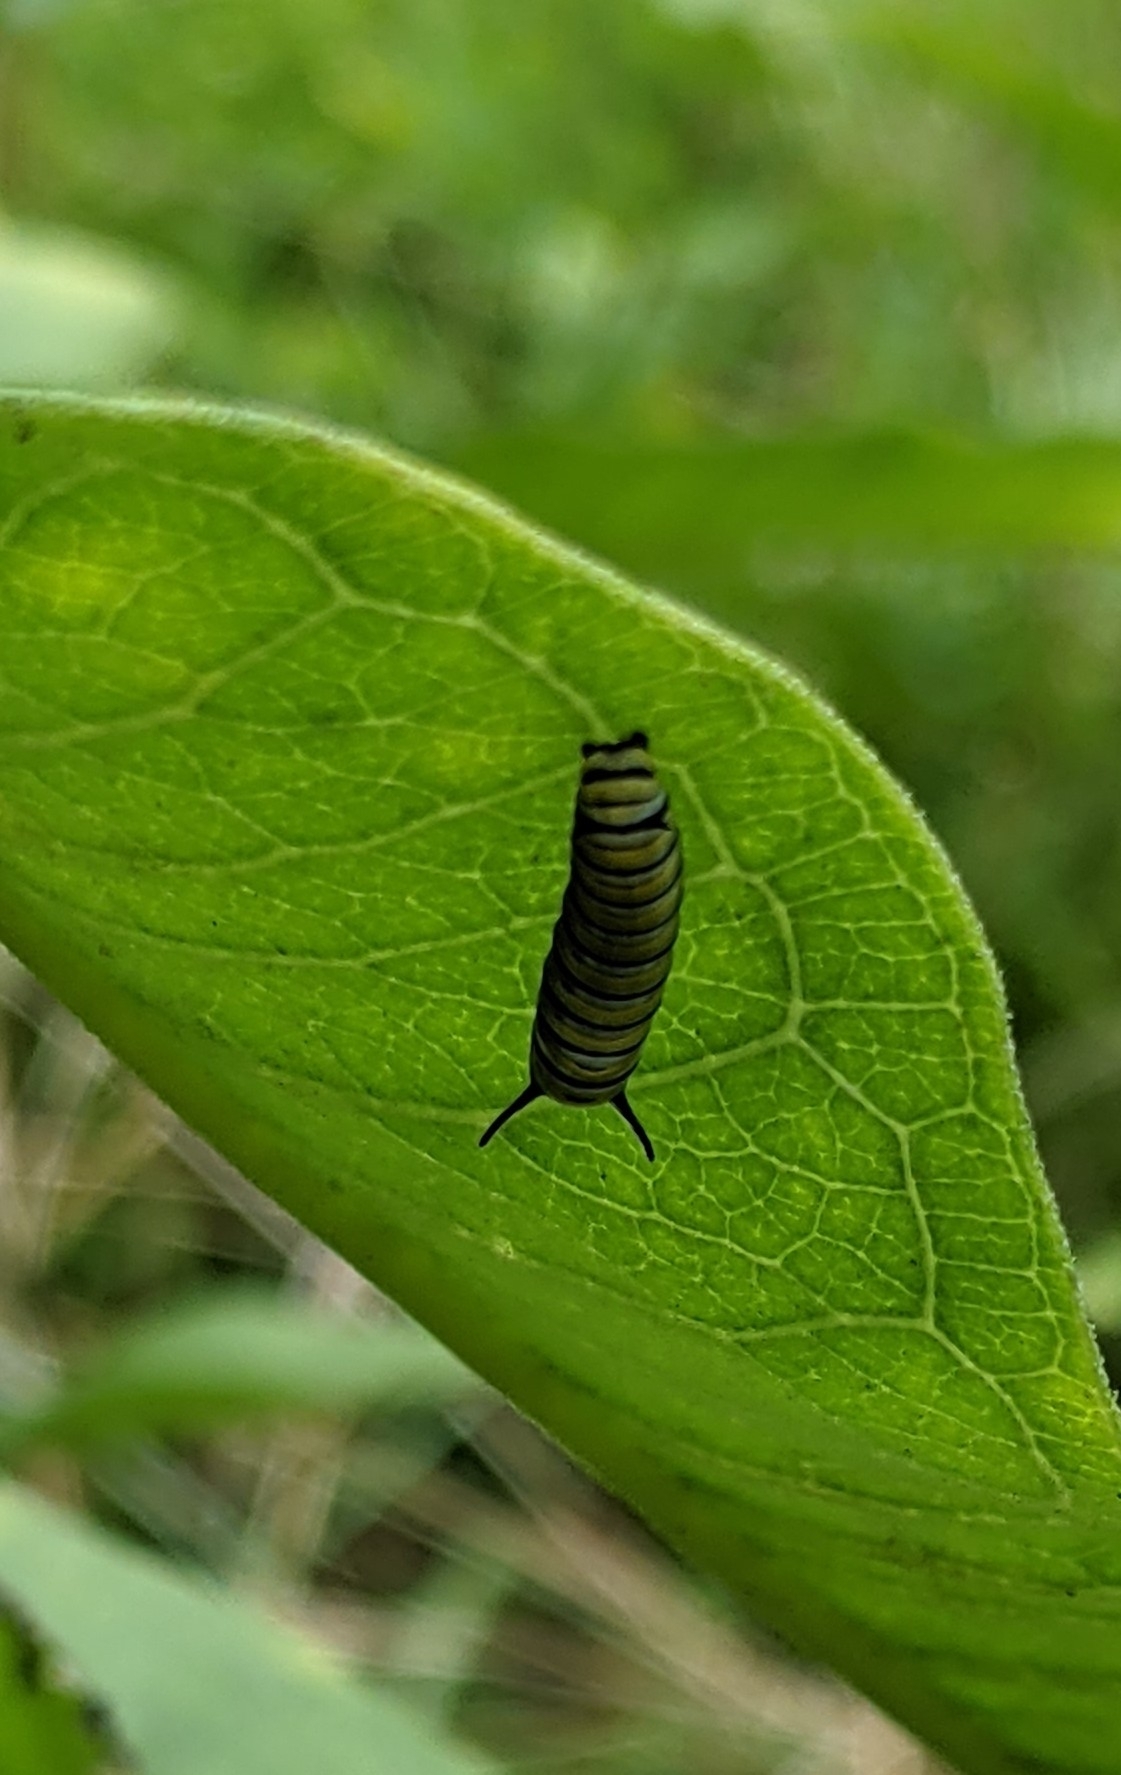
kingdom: Animalia
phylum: Arthropoda
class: Insecta
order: Lepidoptera
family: Nymphalidae
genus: Danaus
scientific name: Danaus plexippus
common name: Monarch
